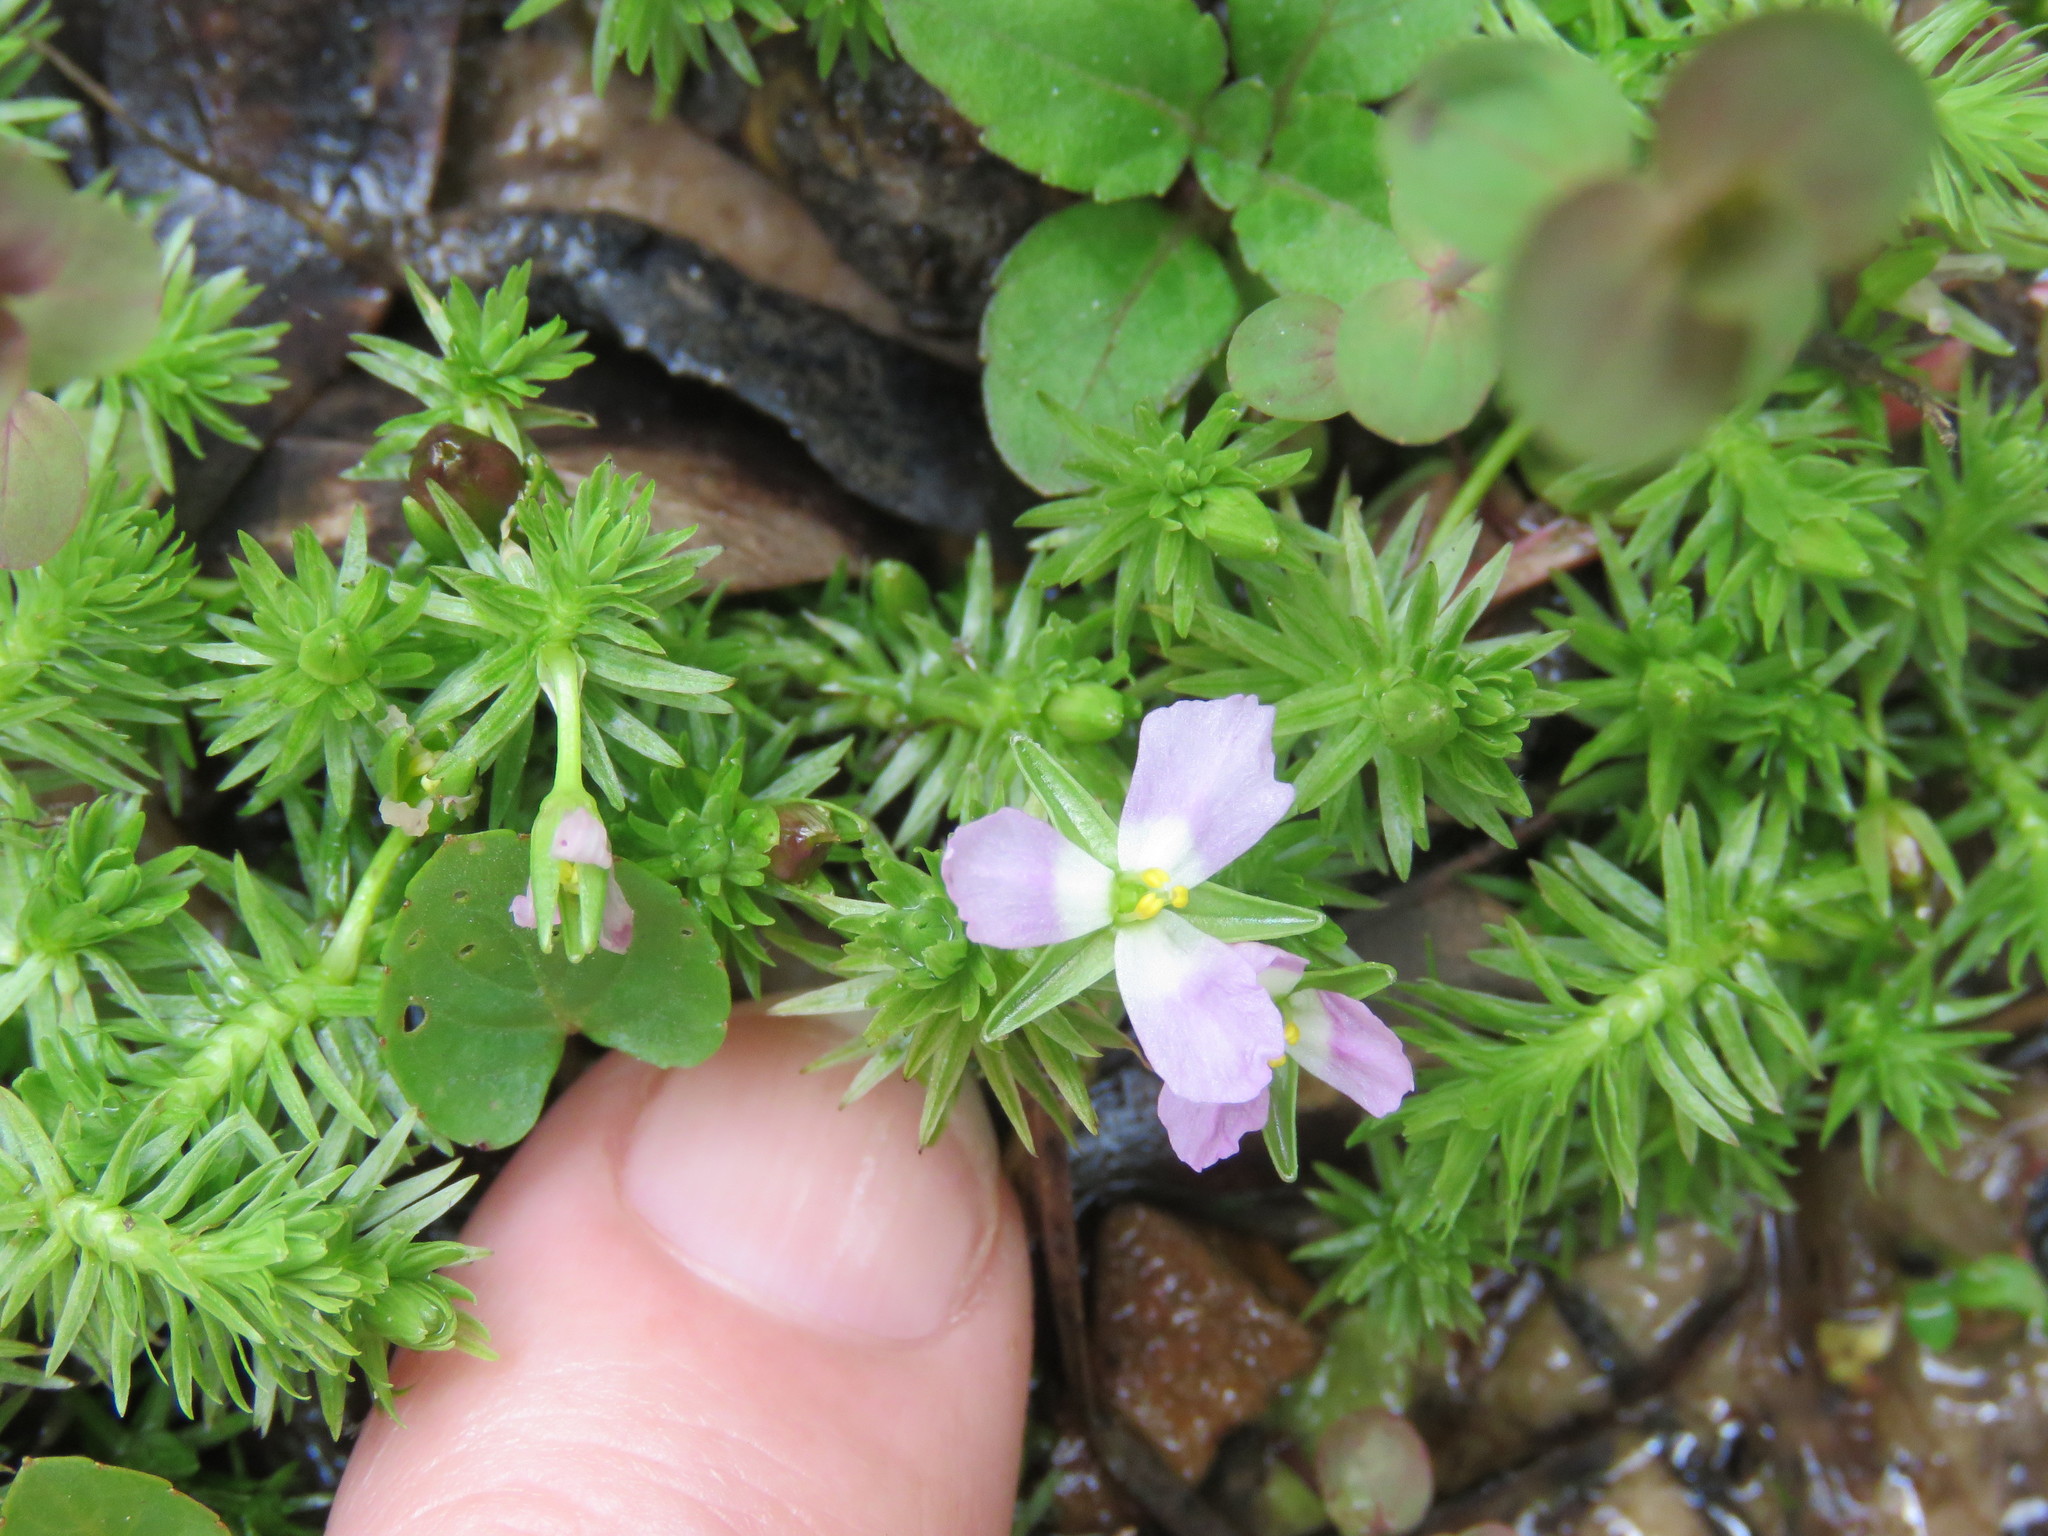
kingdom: Plantae
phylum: Tracheophyta
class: Liliopsida
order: Poales
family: Mayacaceae
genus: Mayaca
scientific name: Mayaca fluviatilis
